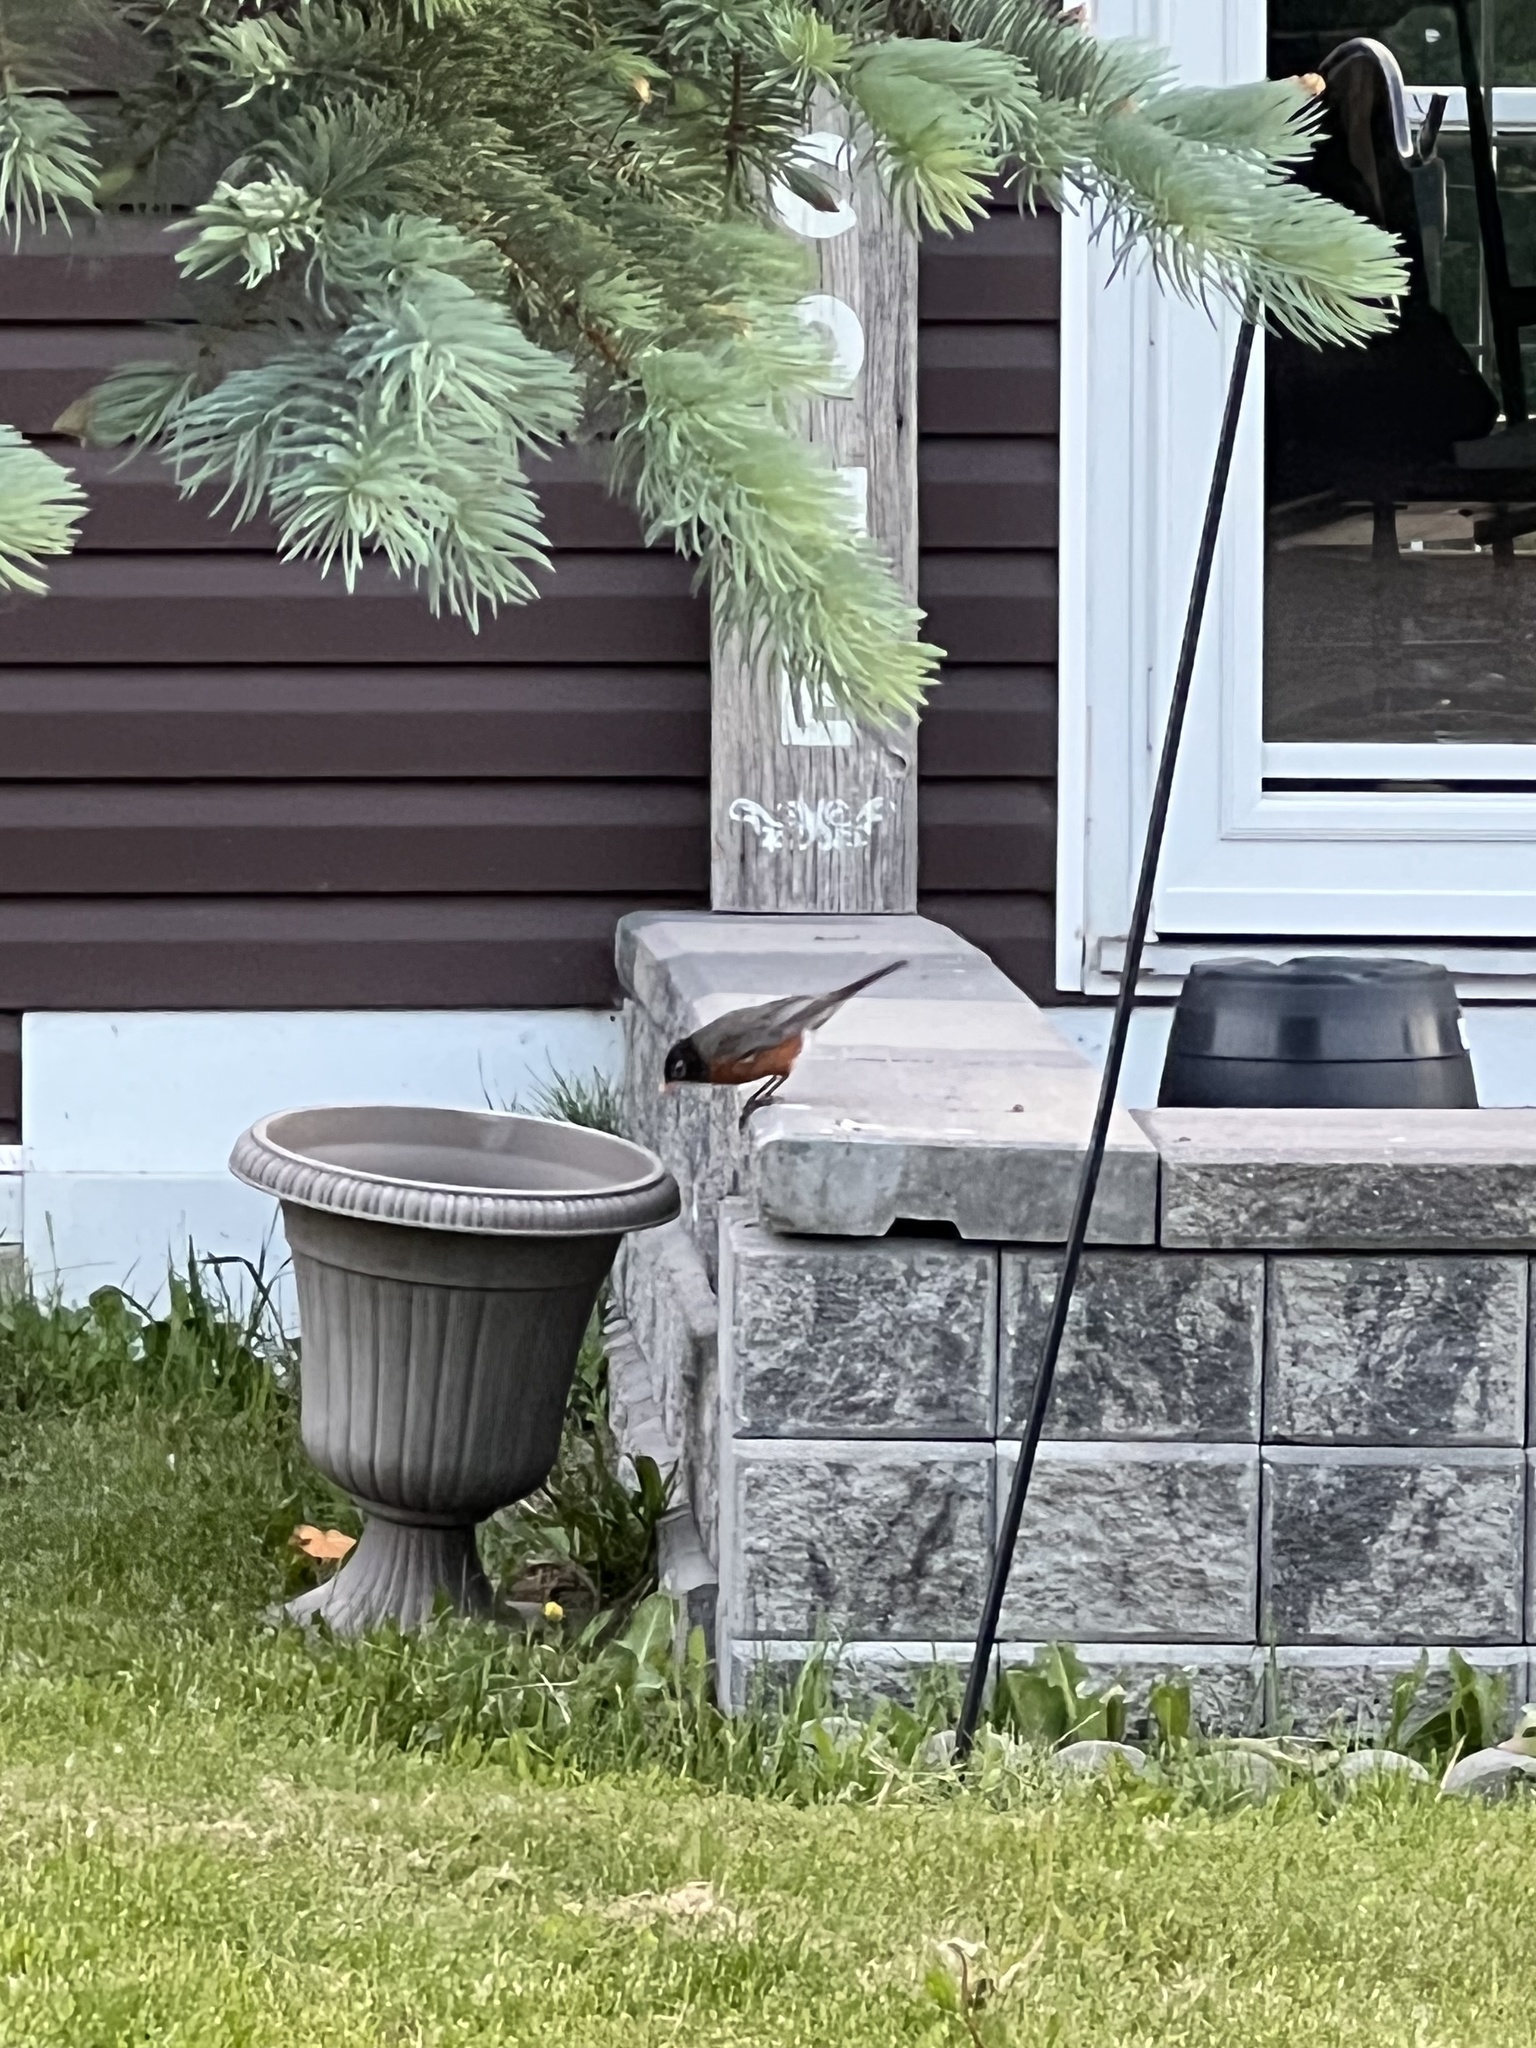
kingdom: Animalia
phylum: Chordata
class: Aves
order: Passeriformes
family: Turdidae
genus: Turdus
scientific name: Turdus migratorius
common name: American robin
